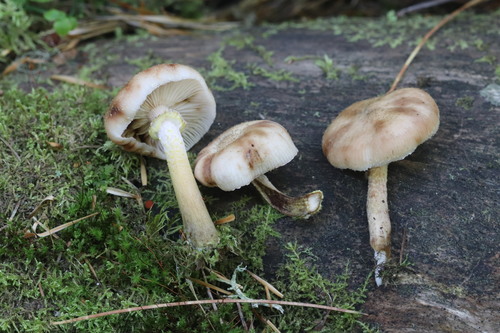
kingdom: Fungi
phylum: Basidiomycota
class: Agaricomycetes
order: Agaricales
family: Physalacriaceae
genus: Armillaria
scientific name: Armillaria
